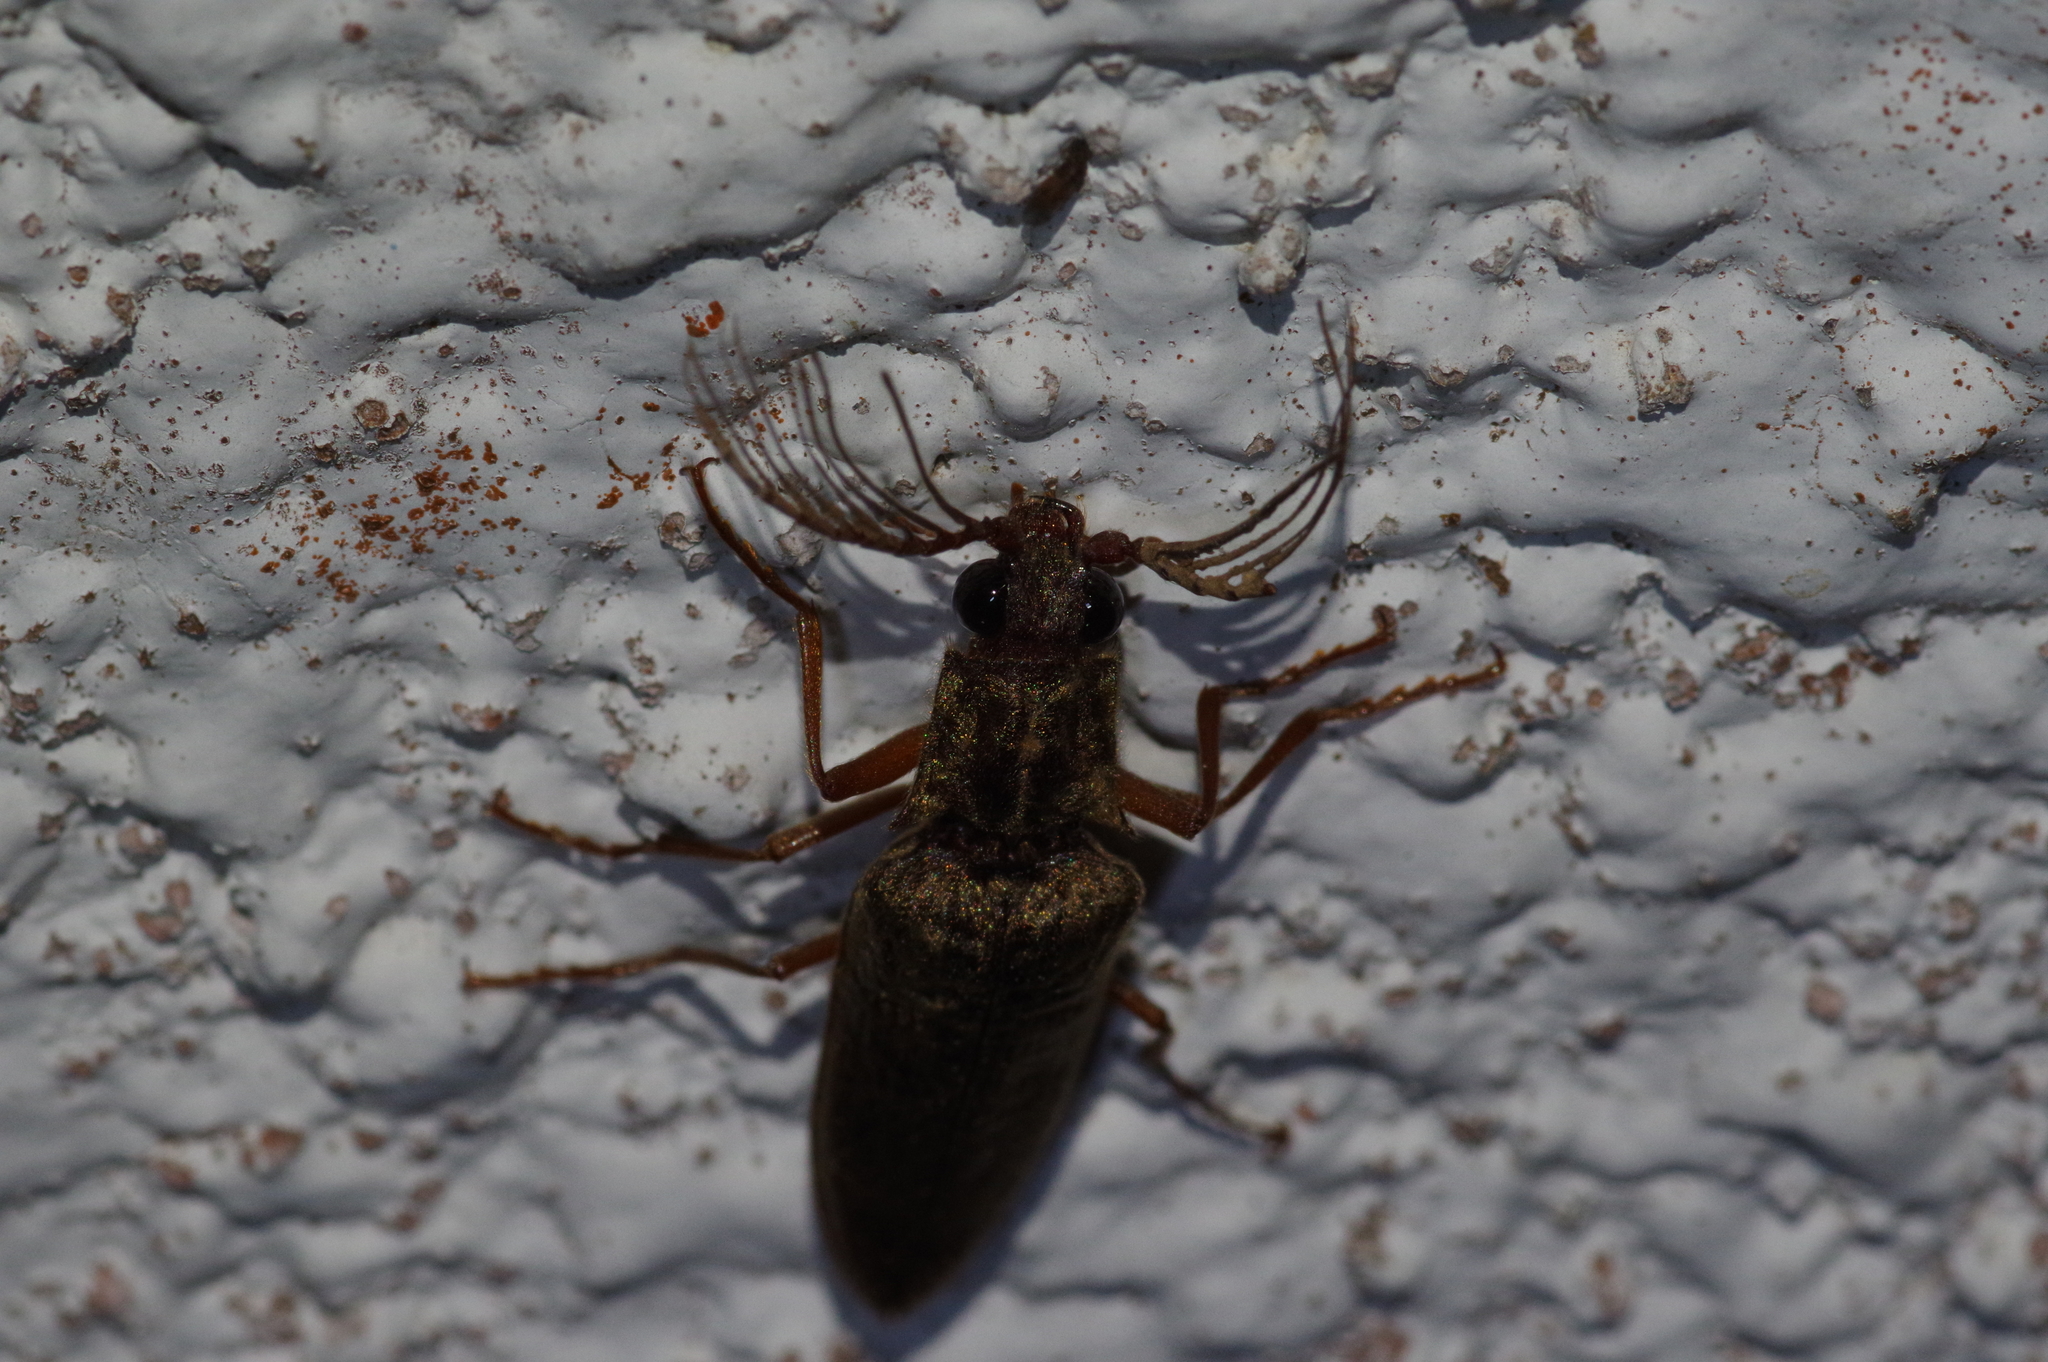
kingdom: Animalia
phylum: Arthropoda
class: Insecta
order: Coleoptera
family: Elateridae
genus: Pectocera
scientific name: Pectocera yonaha
